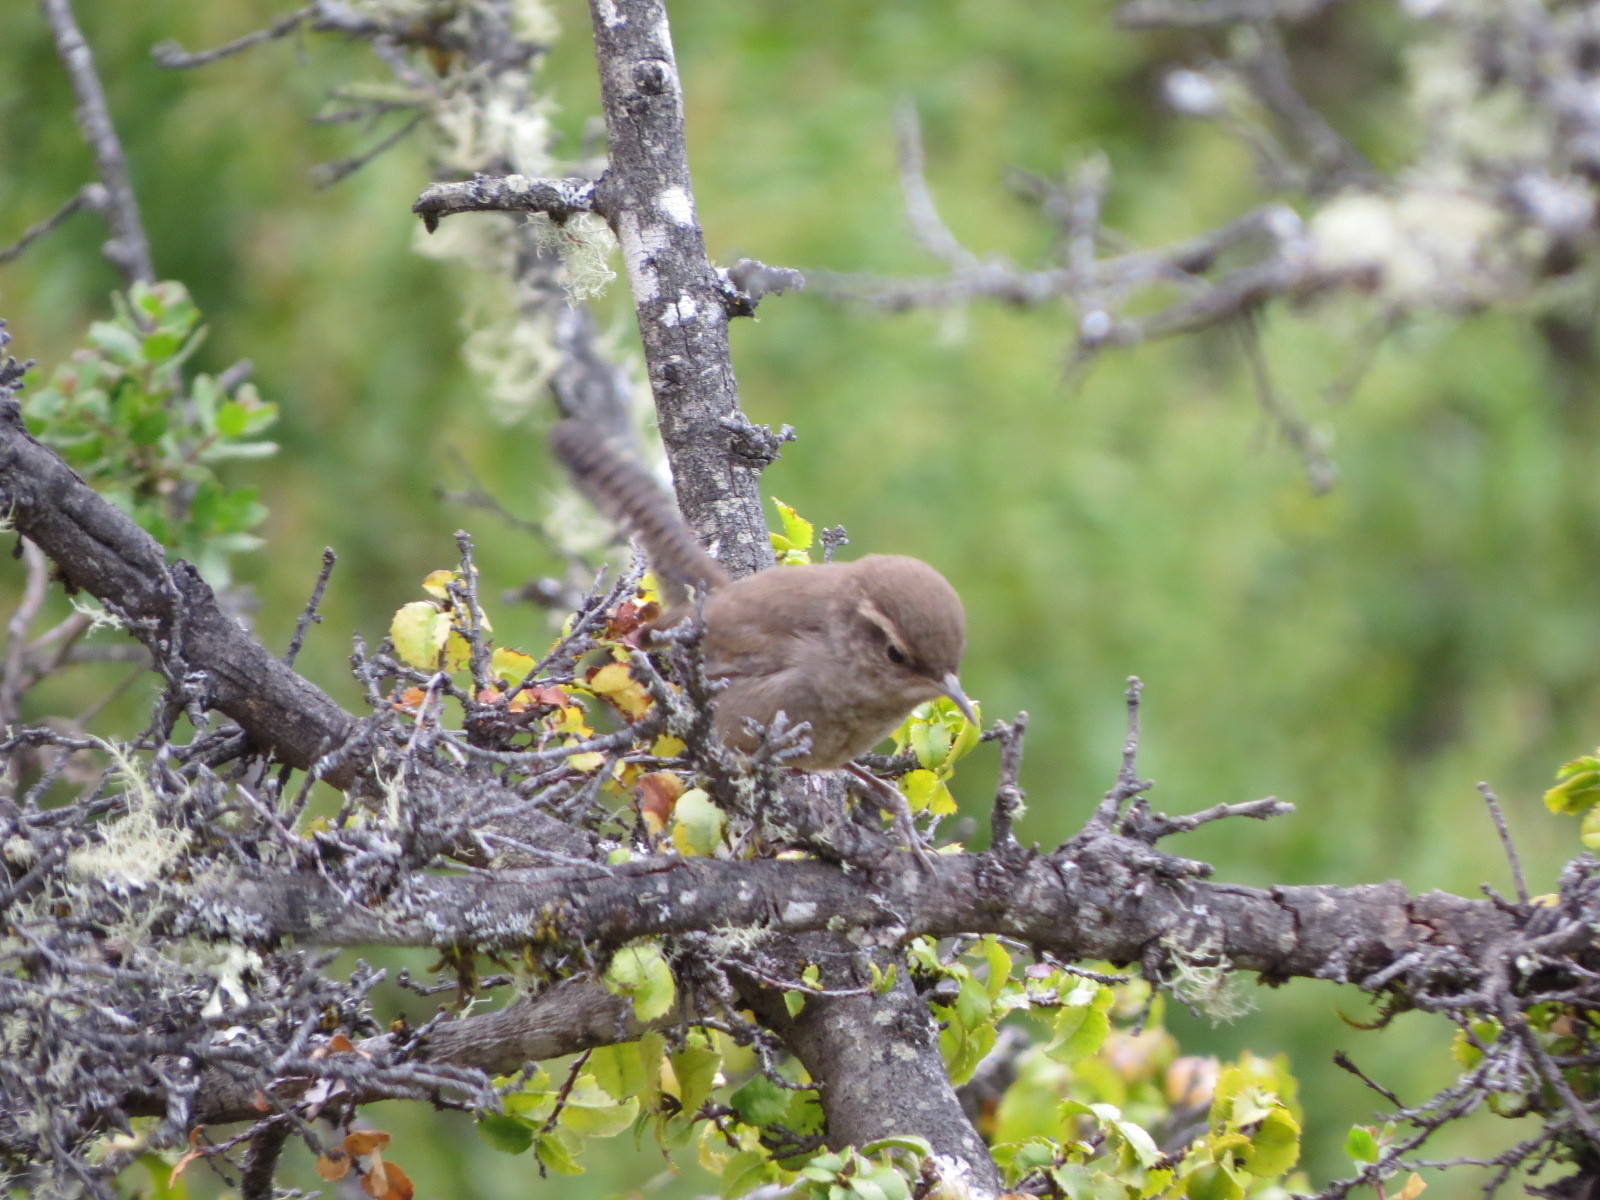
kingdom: Animalia
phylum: Chordata
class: Aves
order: Passeriformes
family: Troglodytidae
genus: Thryomanes
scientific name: Thryomanes bewickii
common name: Bewick's wren
